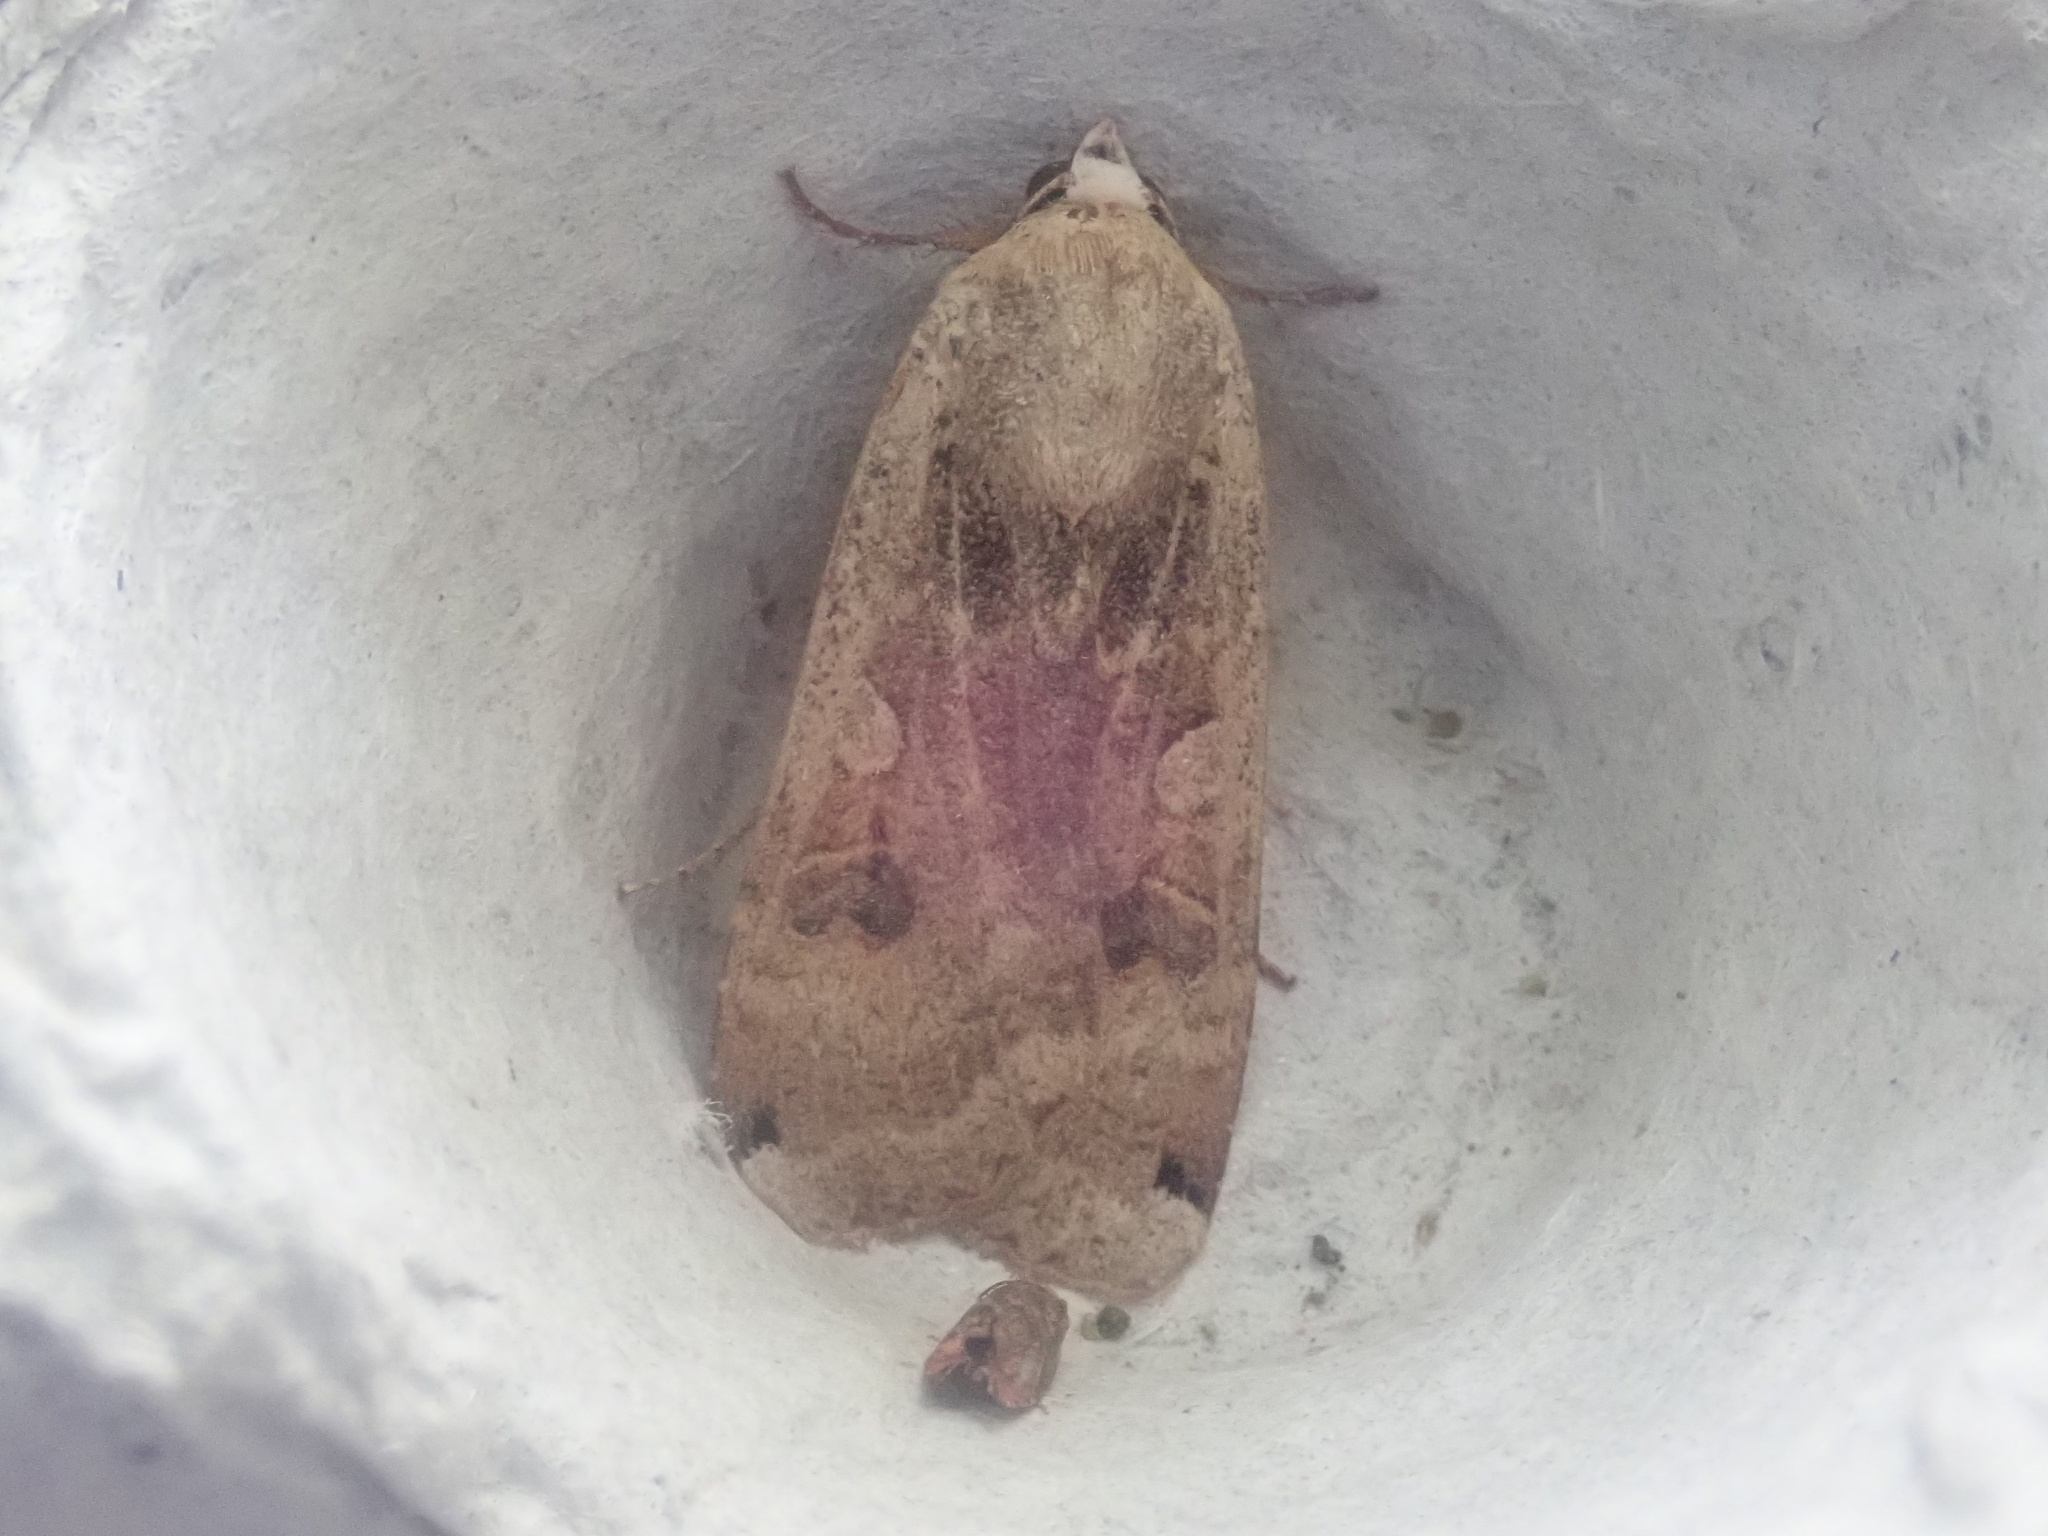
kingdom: Animalia
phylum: Arthropoda
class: Insecta
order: Lepidoptera
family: Noctuidae
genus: Noctua
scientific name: Noctua pronuba
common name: Large yellow underwing
